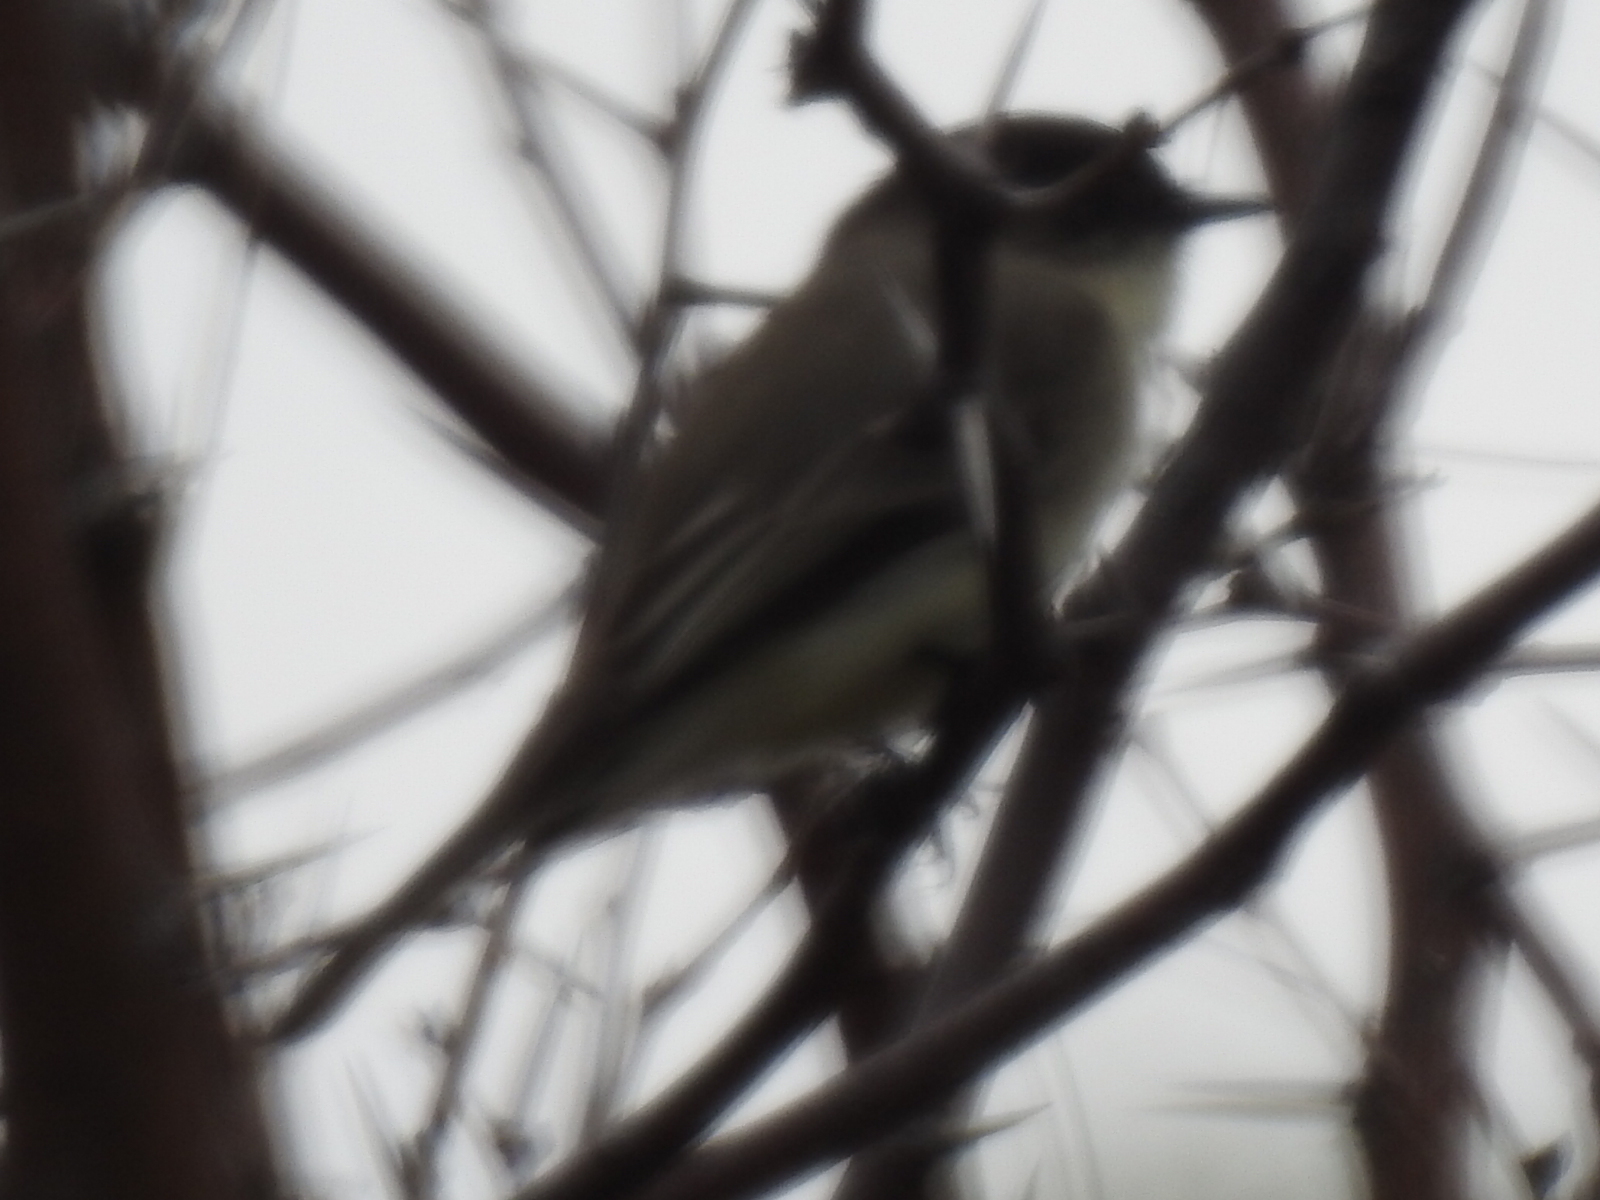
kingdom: Animalia
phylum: Chordata
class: Aves
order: Passeriformes
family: Tyrannidae
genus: Sayornis
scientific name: Sayornis phoebe
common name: Eastern phoebe
